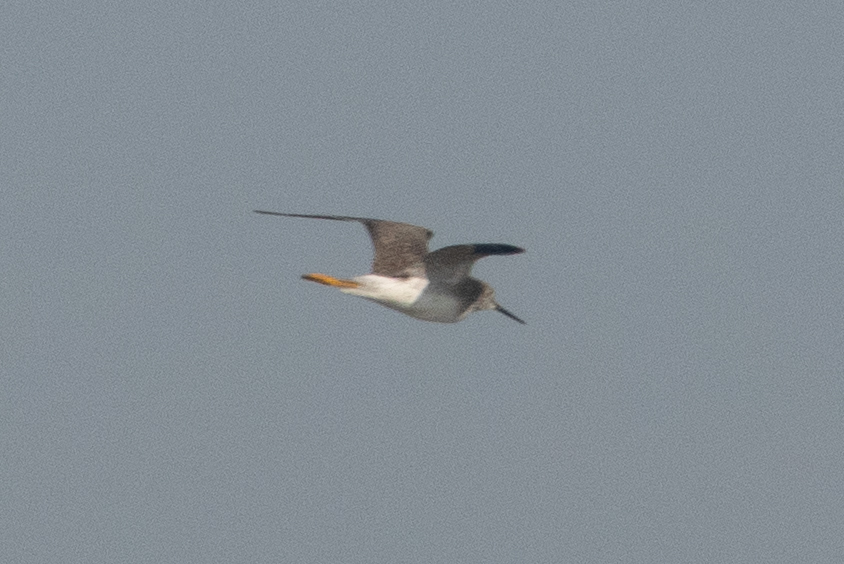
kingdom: Animalia
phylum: Chordata
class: Aves
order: Charadriiformes
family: Scolopacidae
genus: Tringa
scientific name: Tringa melanoleuca
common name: Greater yellowlegs
